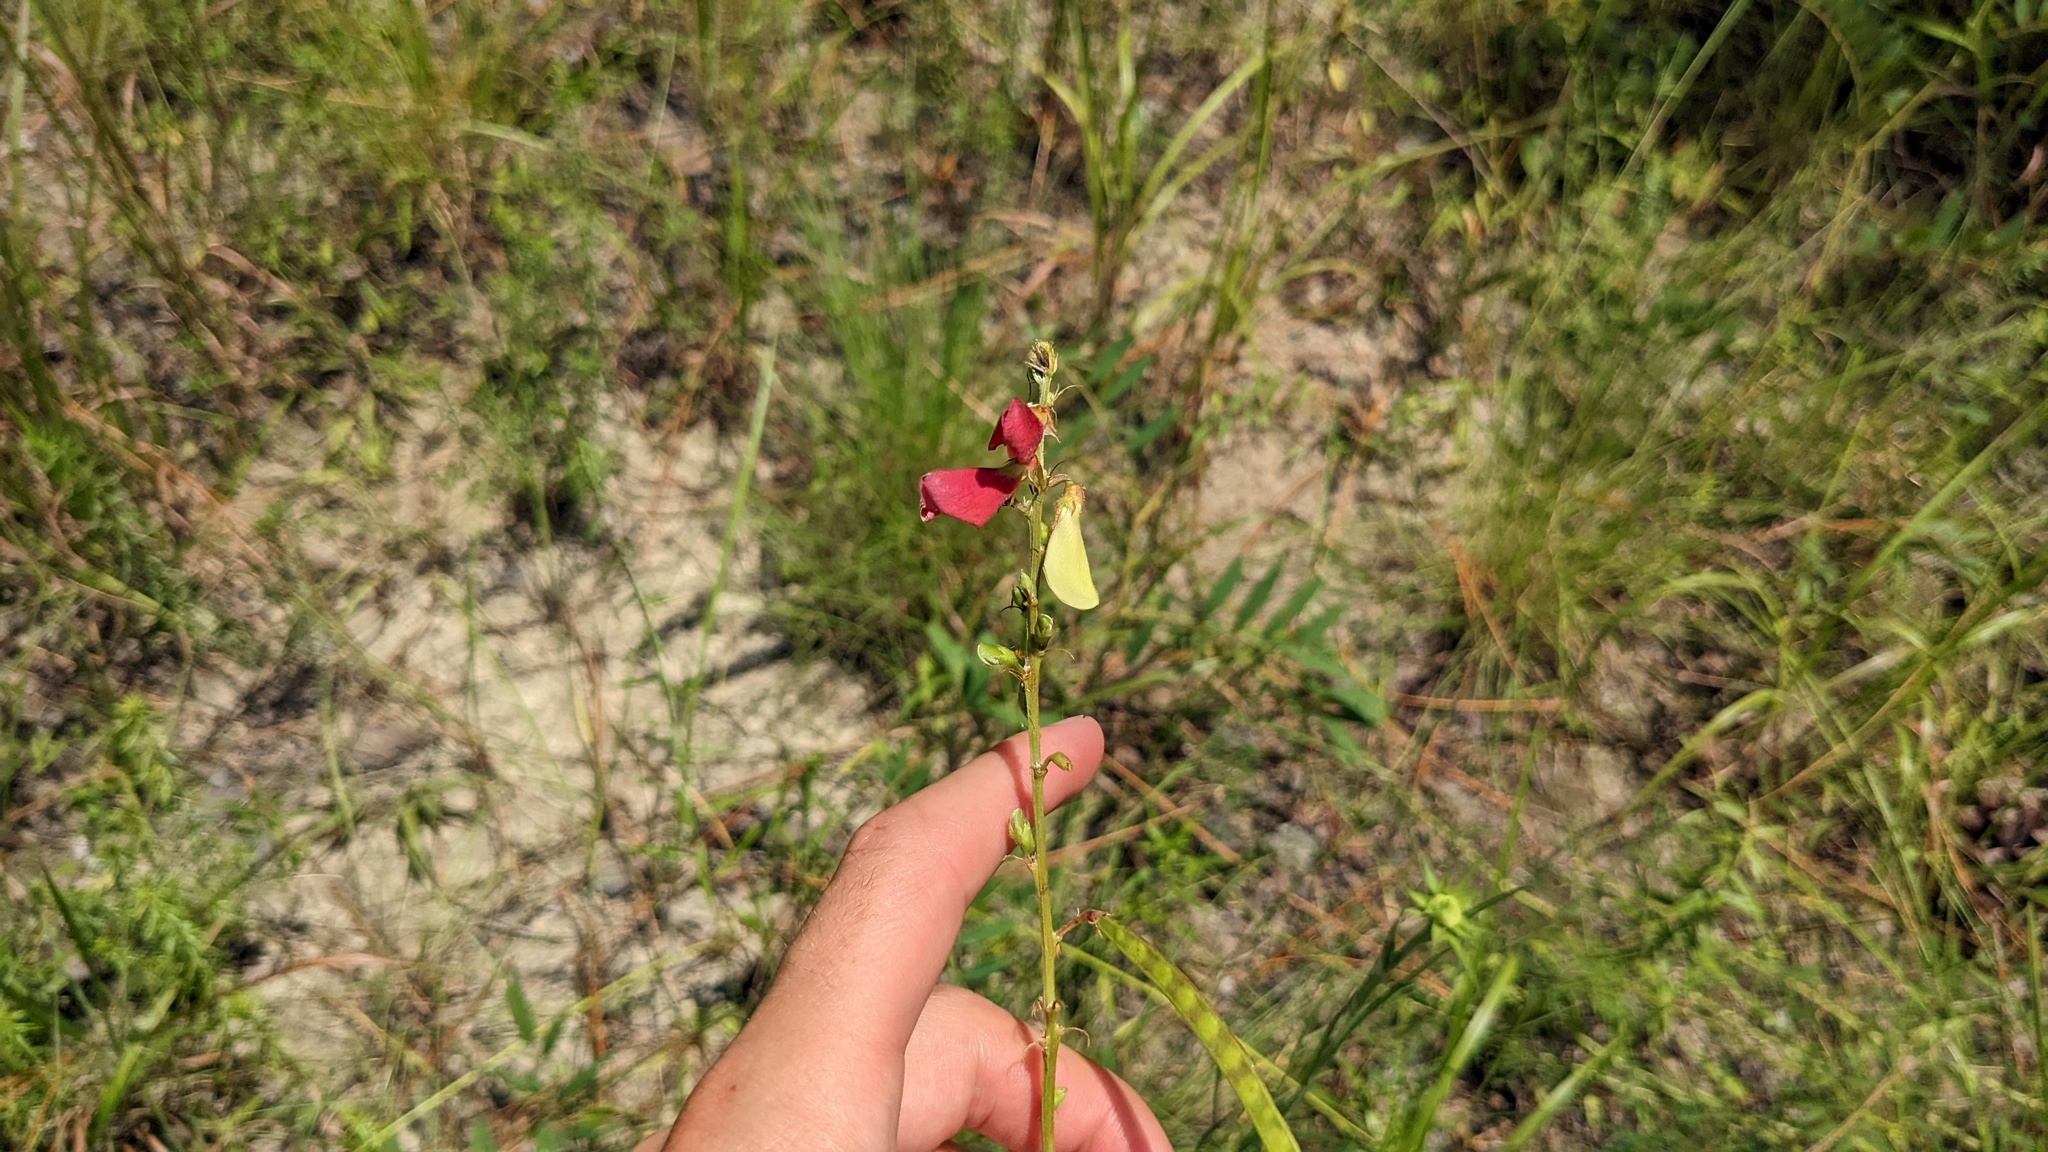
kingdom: Plantae
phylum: Tracheophyta
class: Magnoliopsida
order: Fabales
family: Fabaceae
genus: Tephrosia
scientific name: Tephrosia onobrychoides
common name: Multi-bloom hoary-pea
